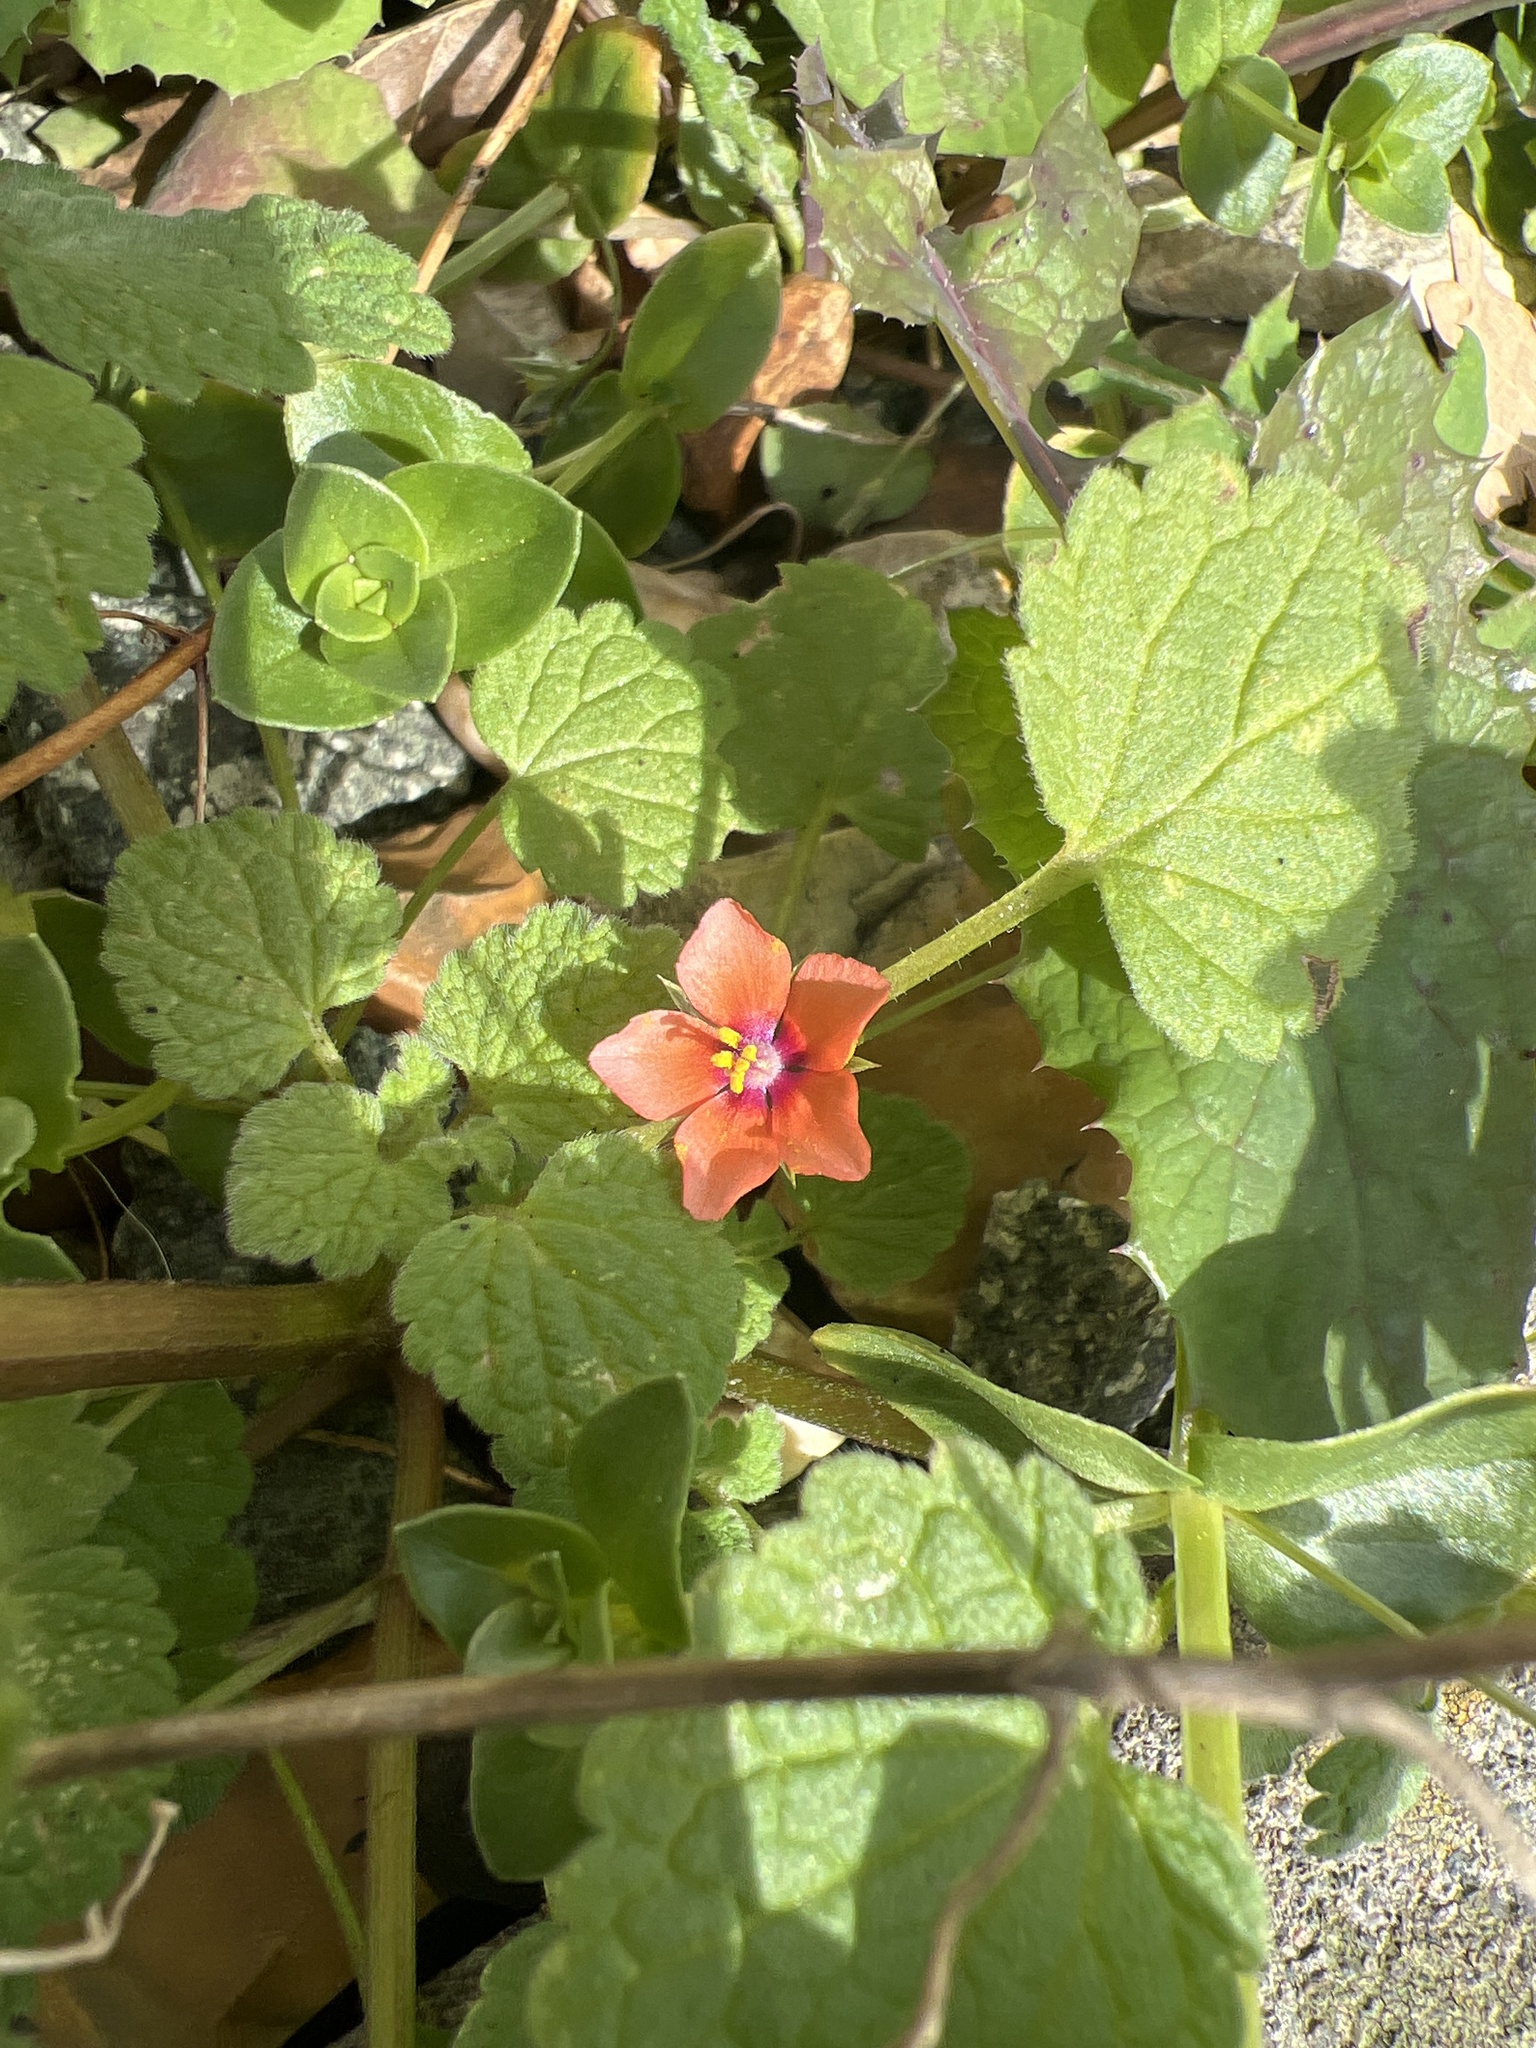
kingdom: Plantae
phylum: Tracheophyta
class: Magnoliopsida
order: Ericales
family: Primulaceae
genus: Lysimachia
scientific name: Lysimachia arvensis
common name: Scarlet pimpernel
